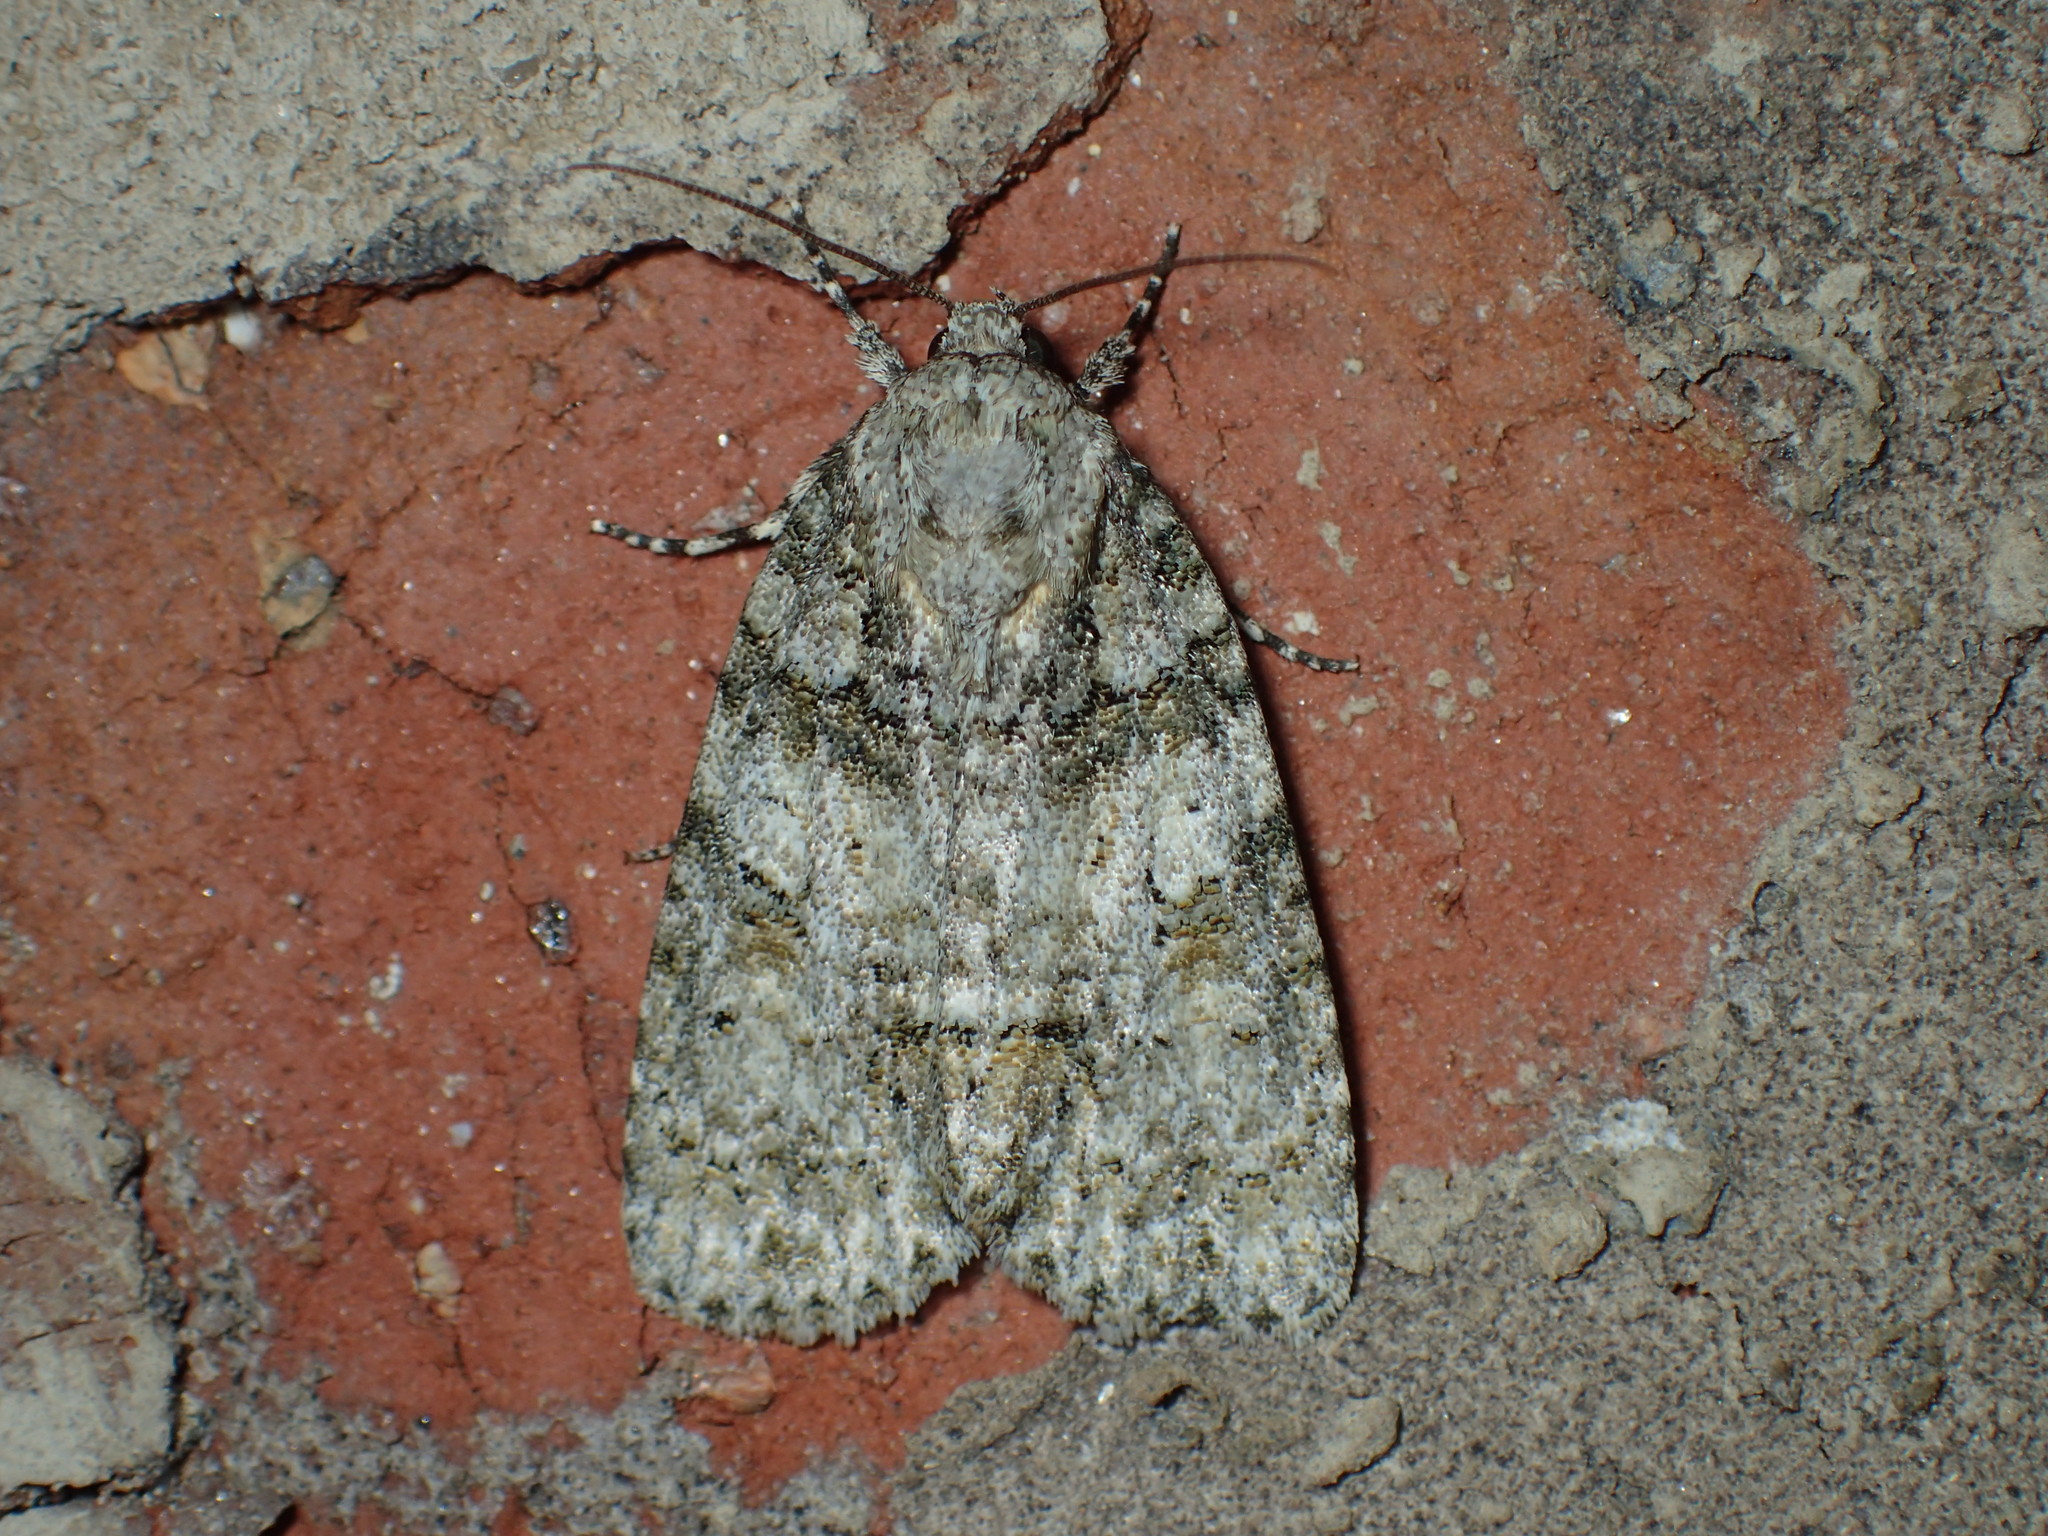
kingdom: Animalia
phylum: Arthropoda
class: Insecta
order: Lepidoptera
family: Noctuidae
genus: Acronicta
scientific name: Acronicta ovata
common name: Epauleted oak dagger
